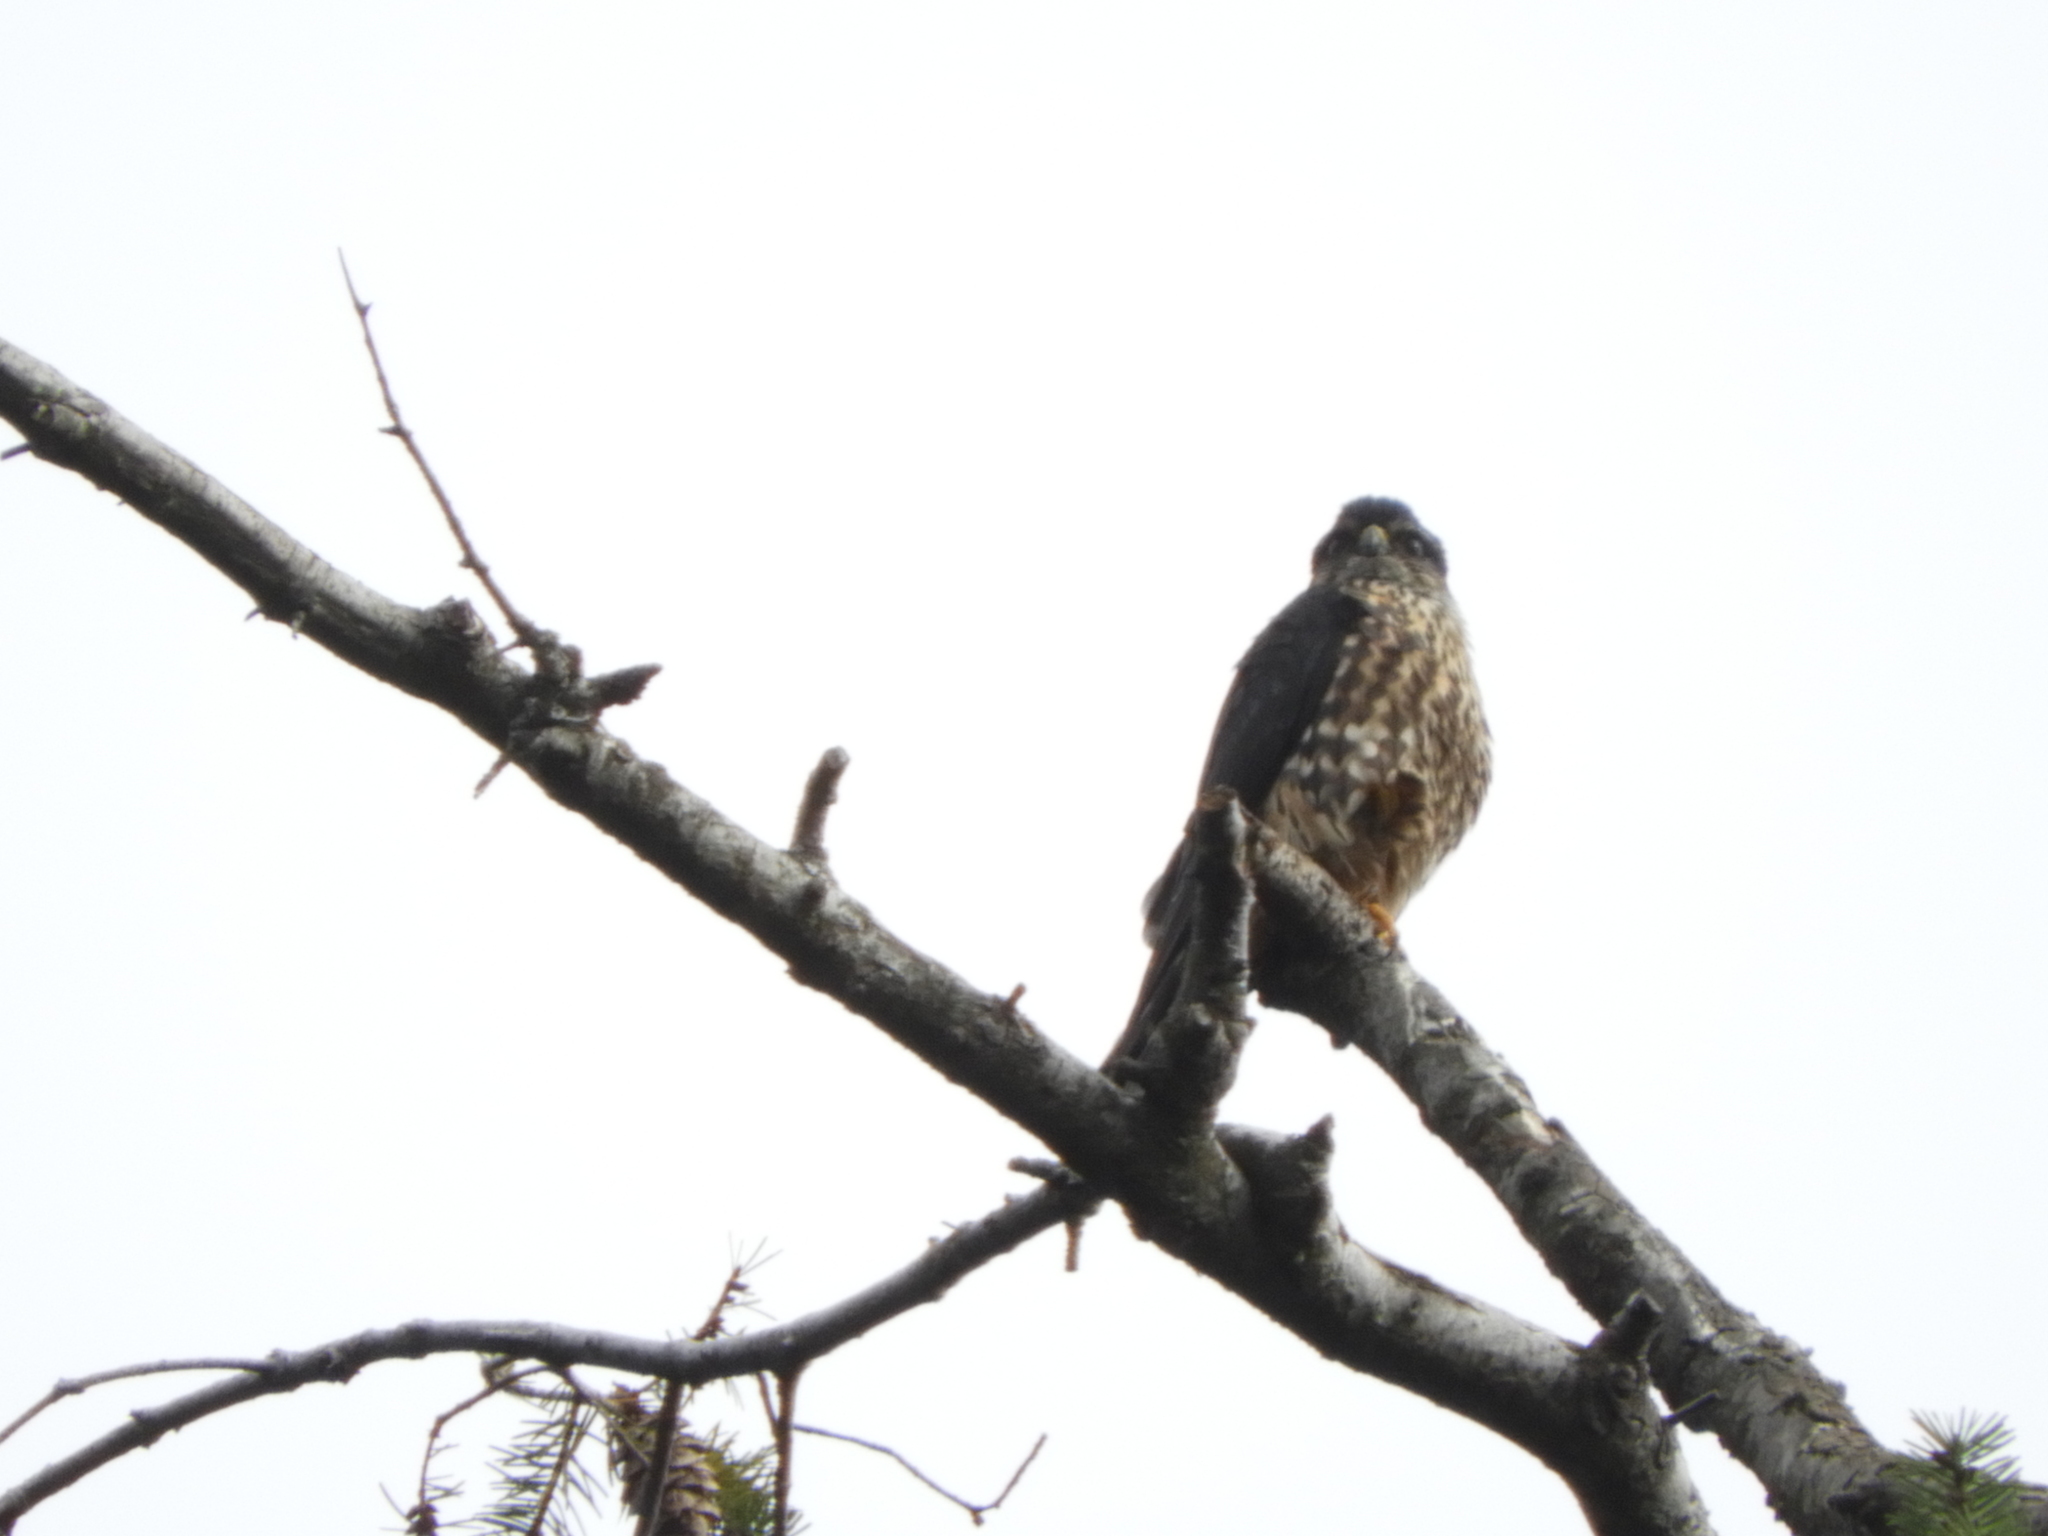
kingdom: Animalia
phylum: Chordata
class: Aves
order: Falconiformes
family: Falconidae
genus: Falco
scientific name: Falco columbarius
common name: Merlin
